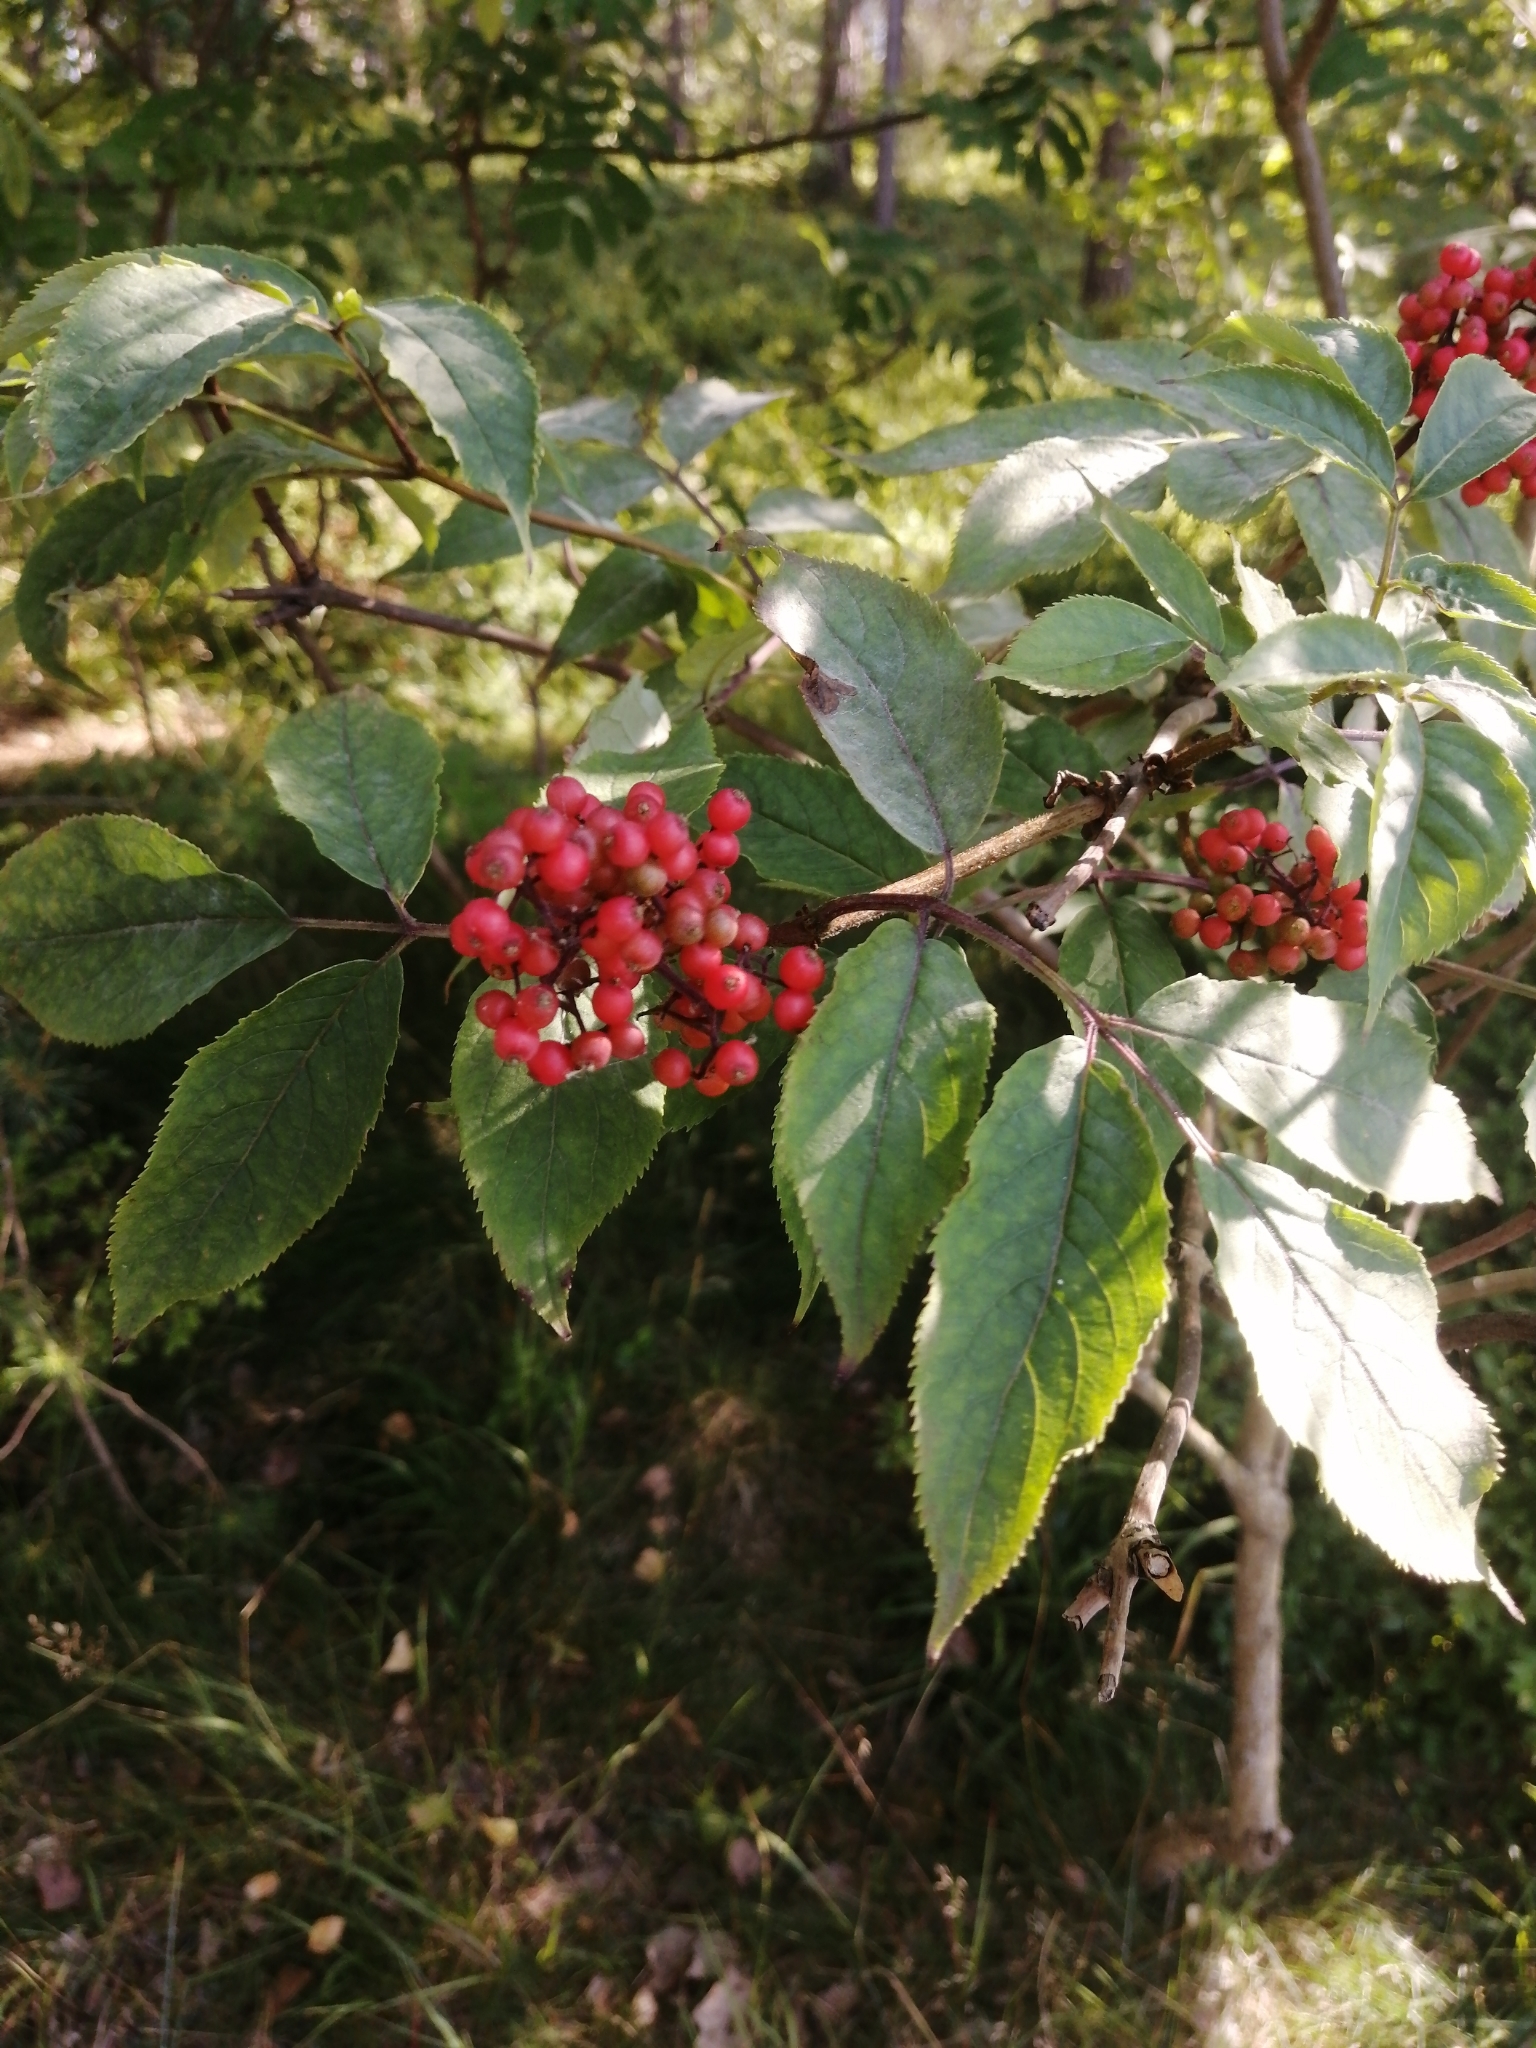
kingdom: Plantae
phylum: Tracheophyta
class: Magnoliopsida
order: Dipsacales
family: Viburnaceae
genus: Sambucus
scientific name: Sambucus racemosa
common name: Red-berried elder
